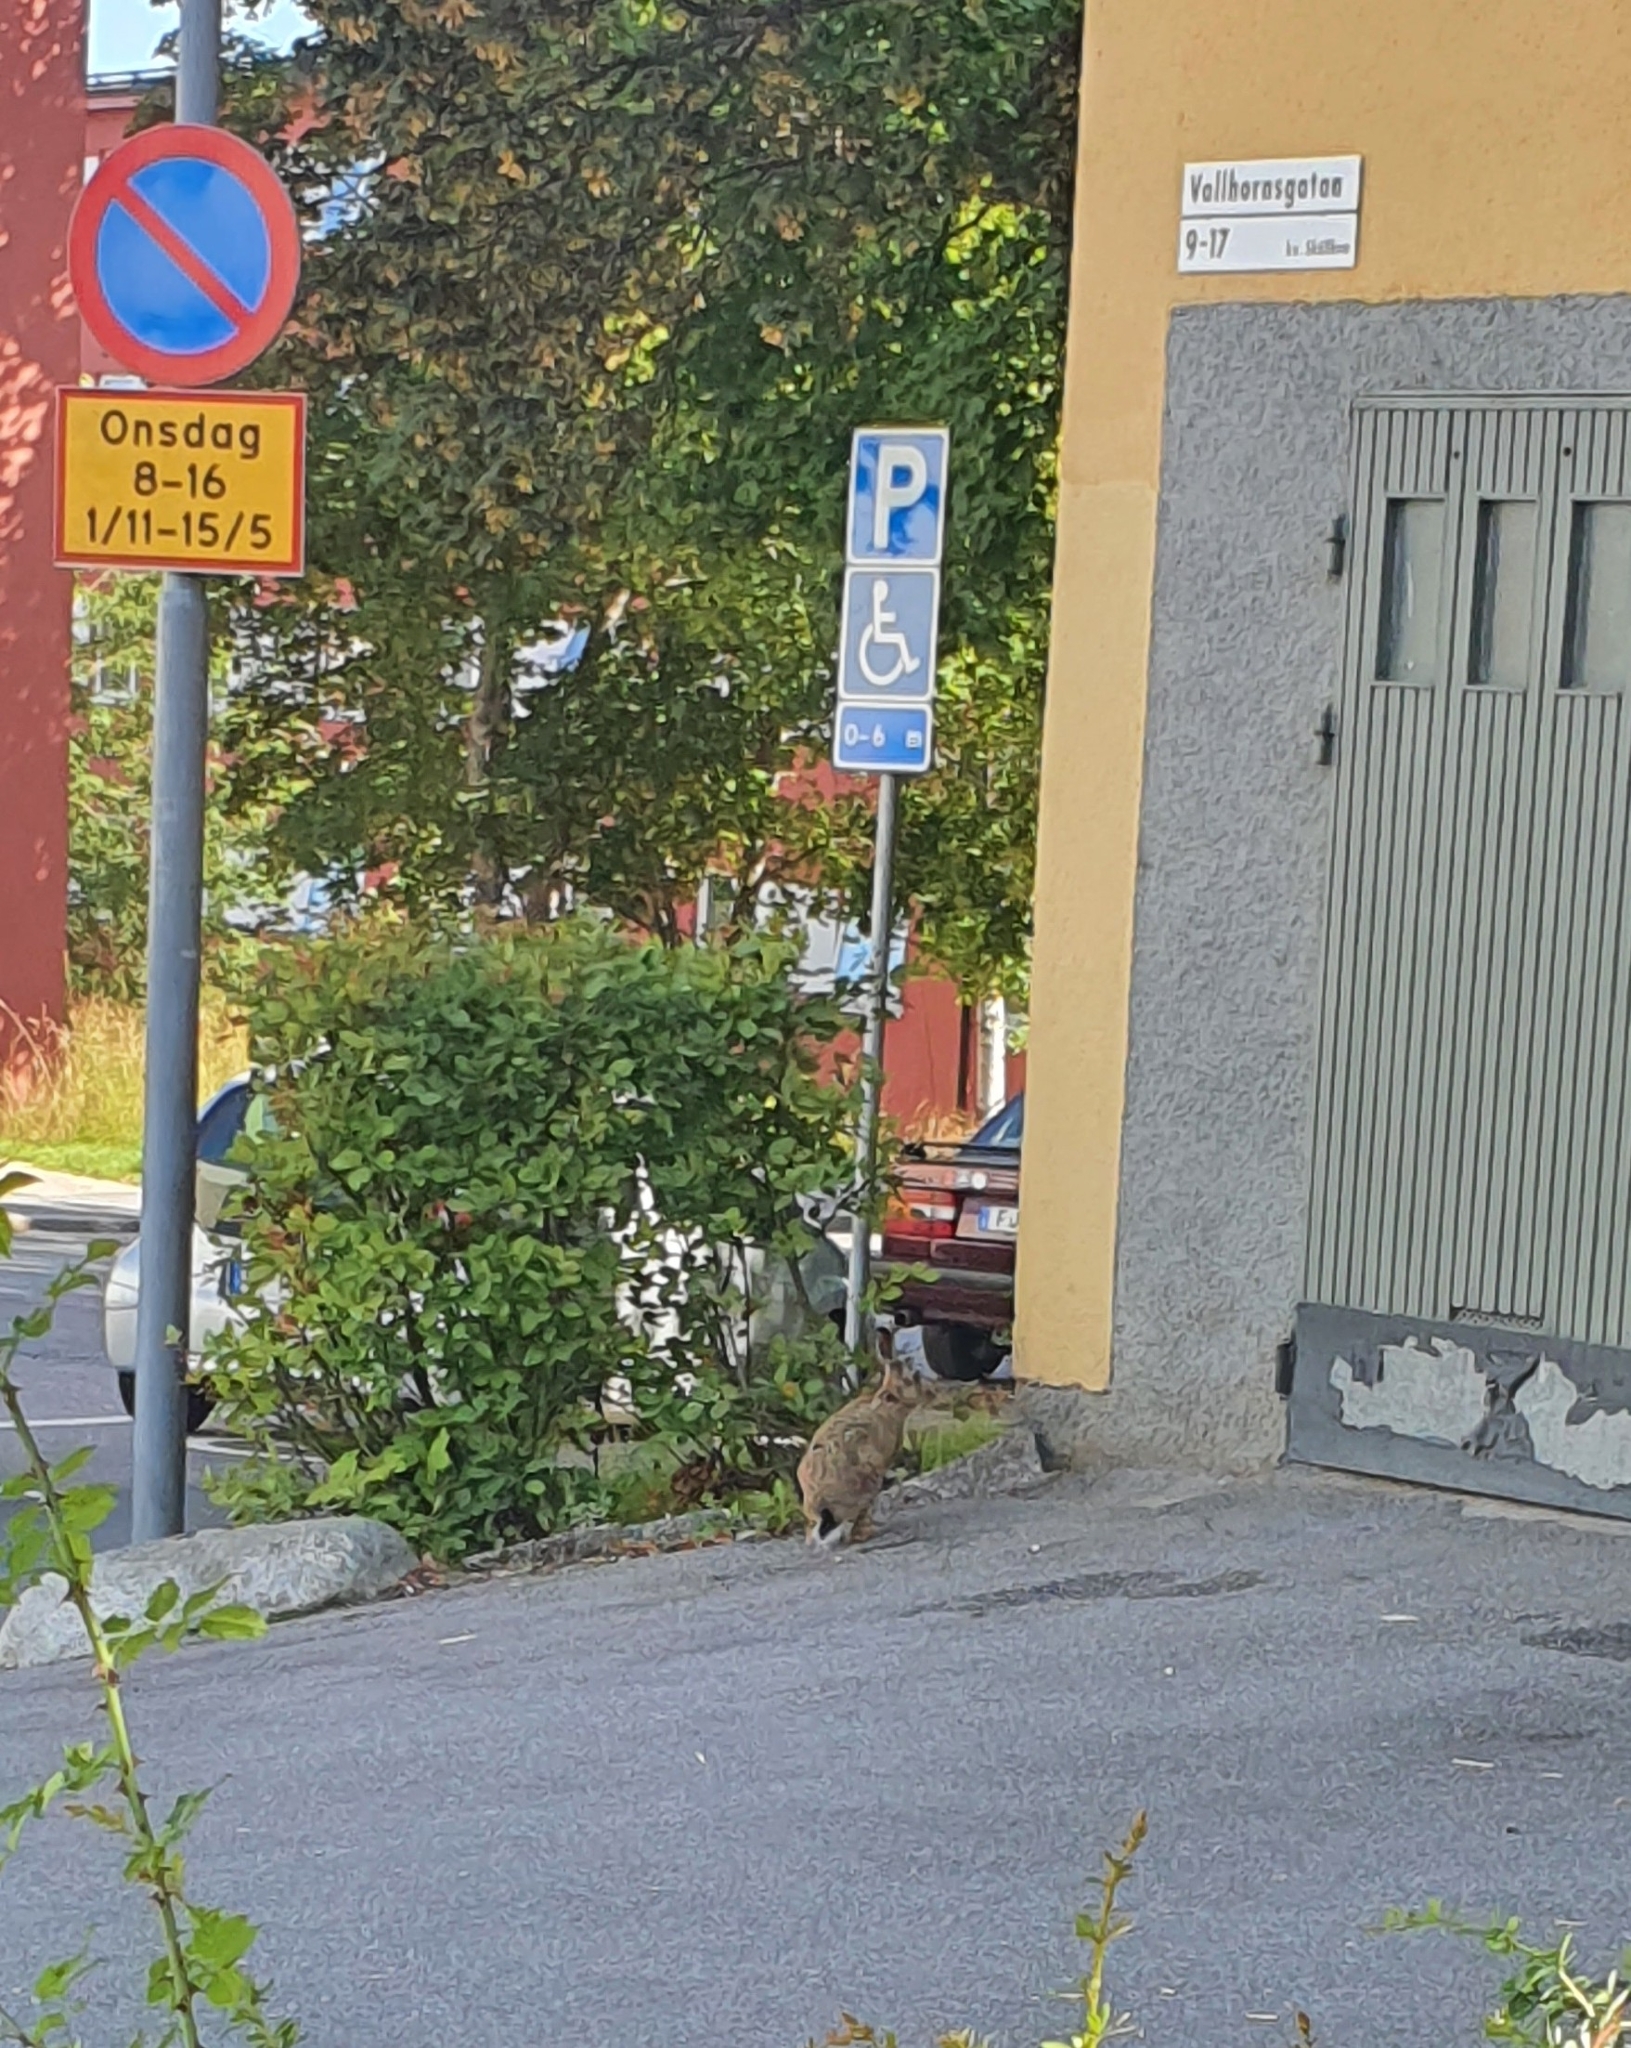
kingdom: Animalia
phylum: Chordata
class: Mammalia
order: Lagomorpha
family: Leporidae
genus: Lepus
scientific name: Lepus europaeus
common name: European hare
